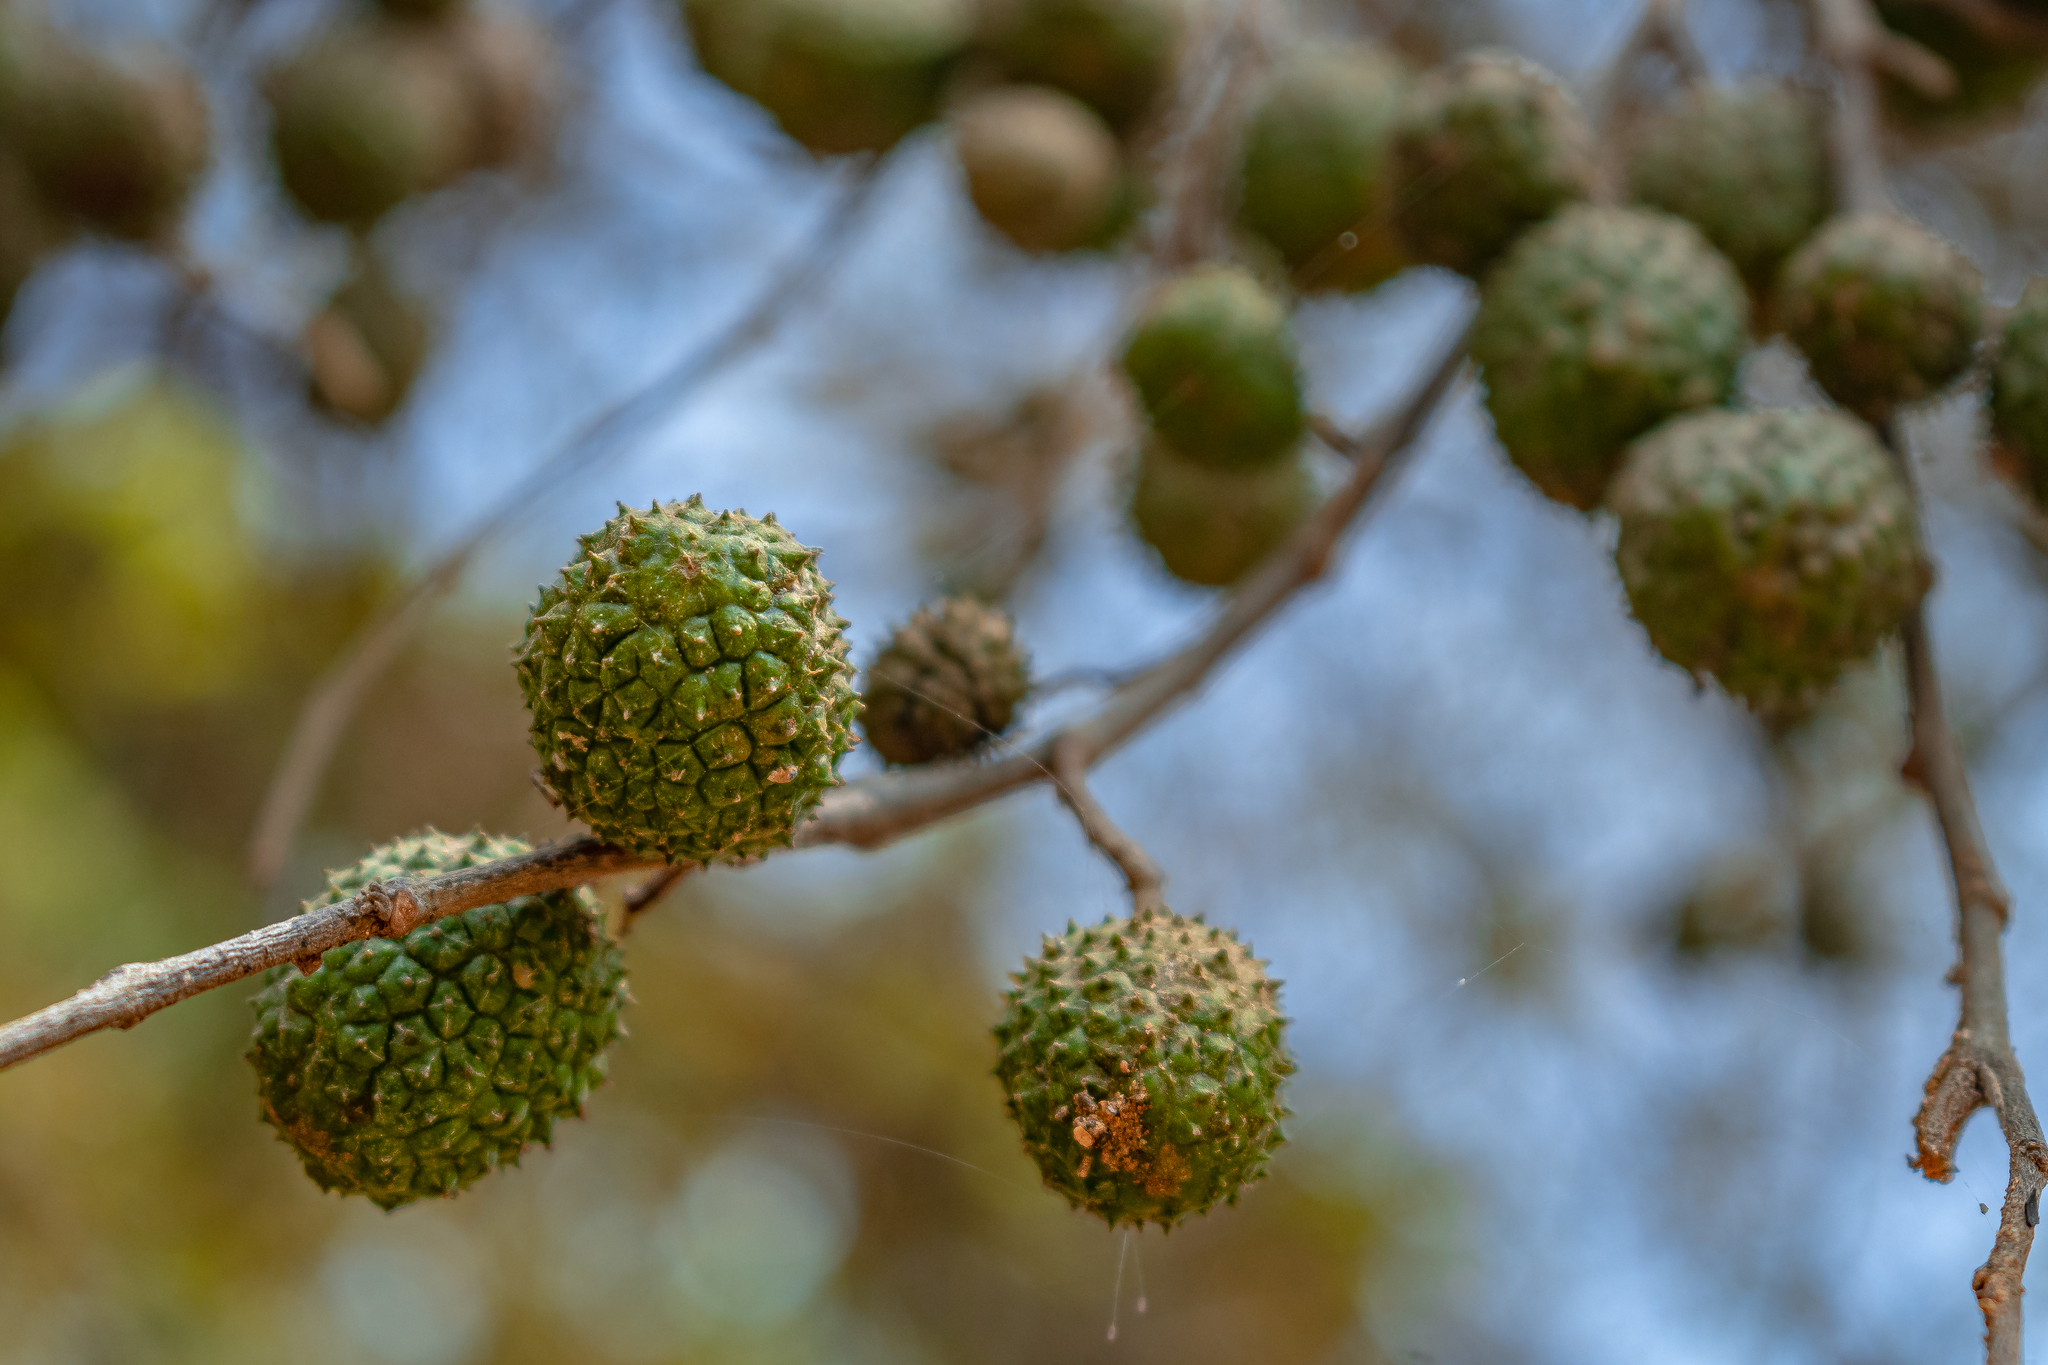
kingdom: Plantae
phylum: Tracheophyta
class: Magnoliopsida
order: Malvales
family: Malvaceae
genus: Guazuma
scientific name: Guazuma ulmifolia
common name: Bastard-cedar
